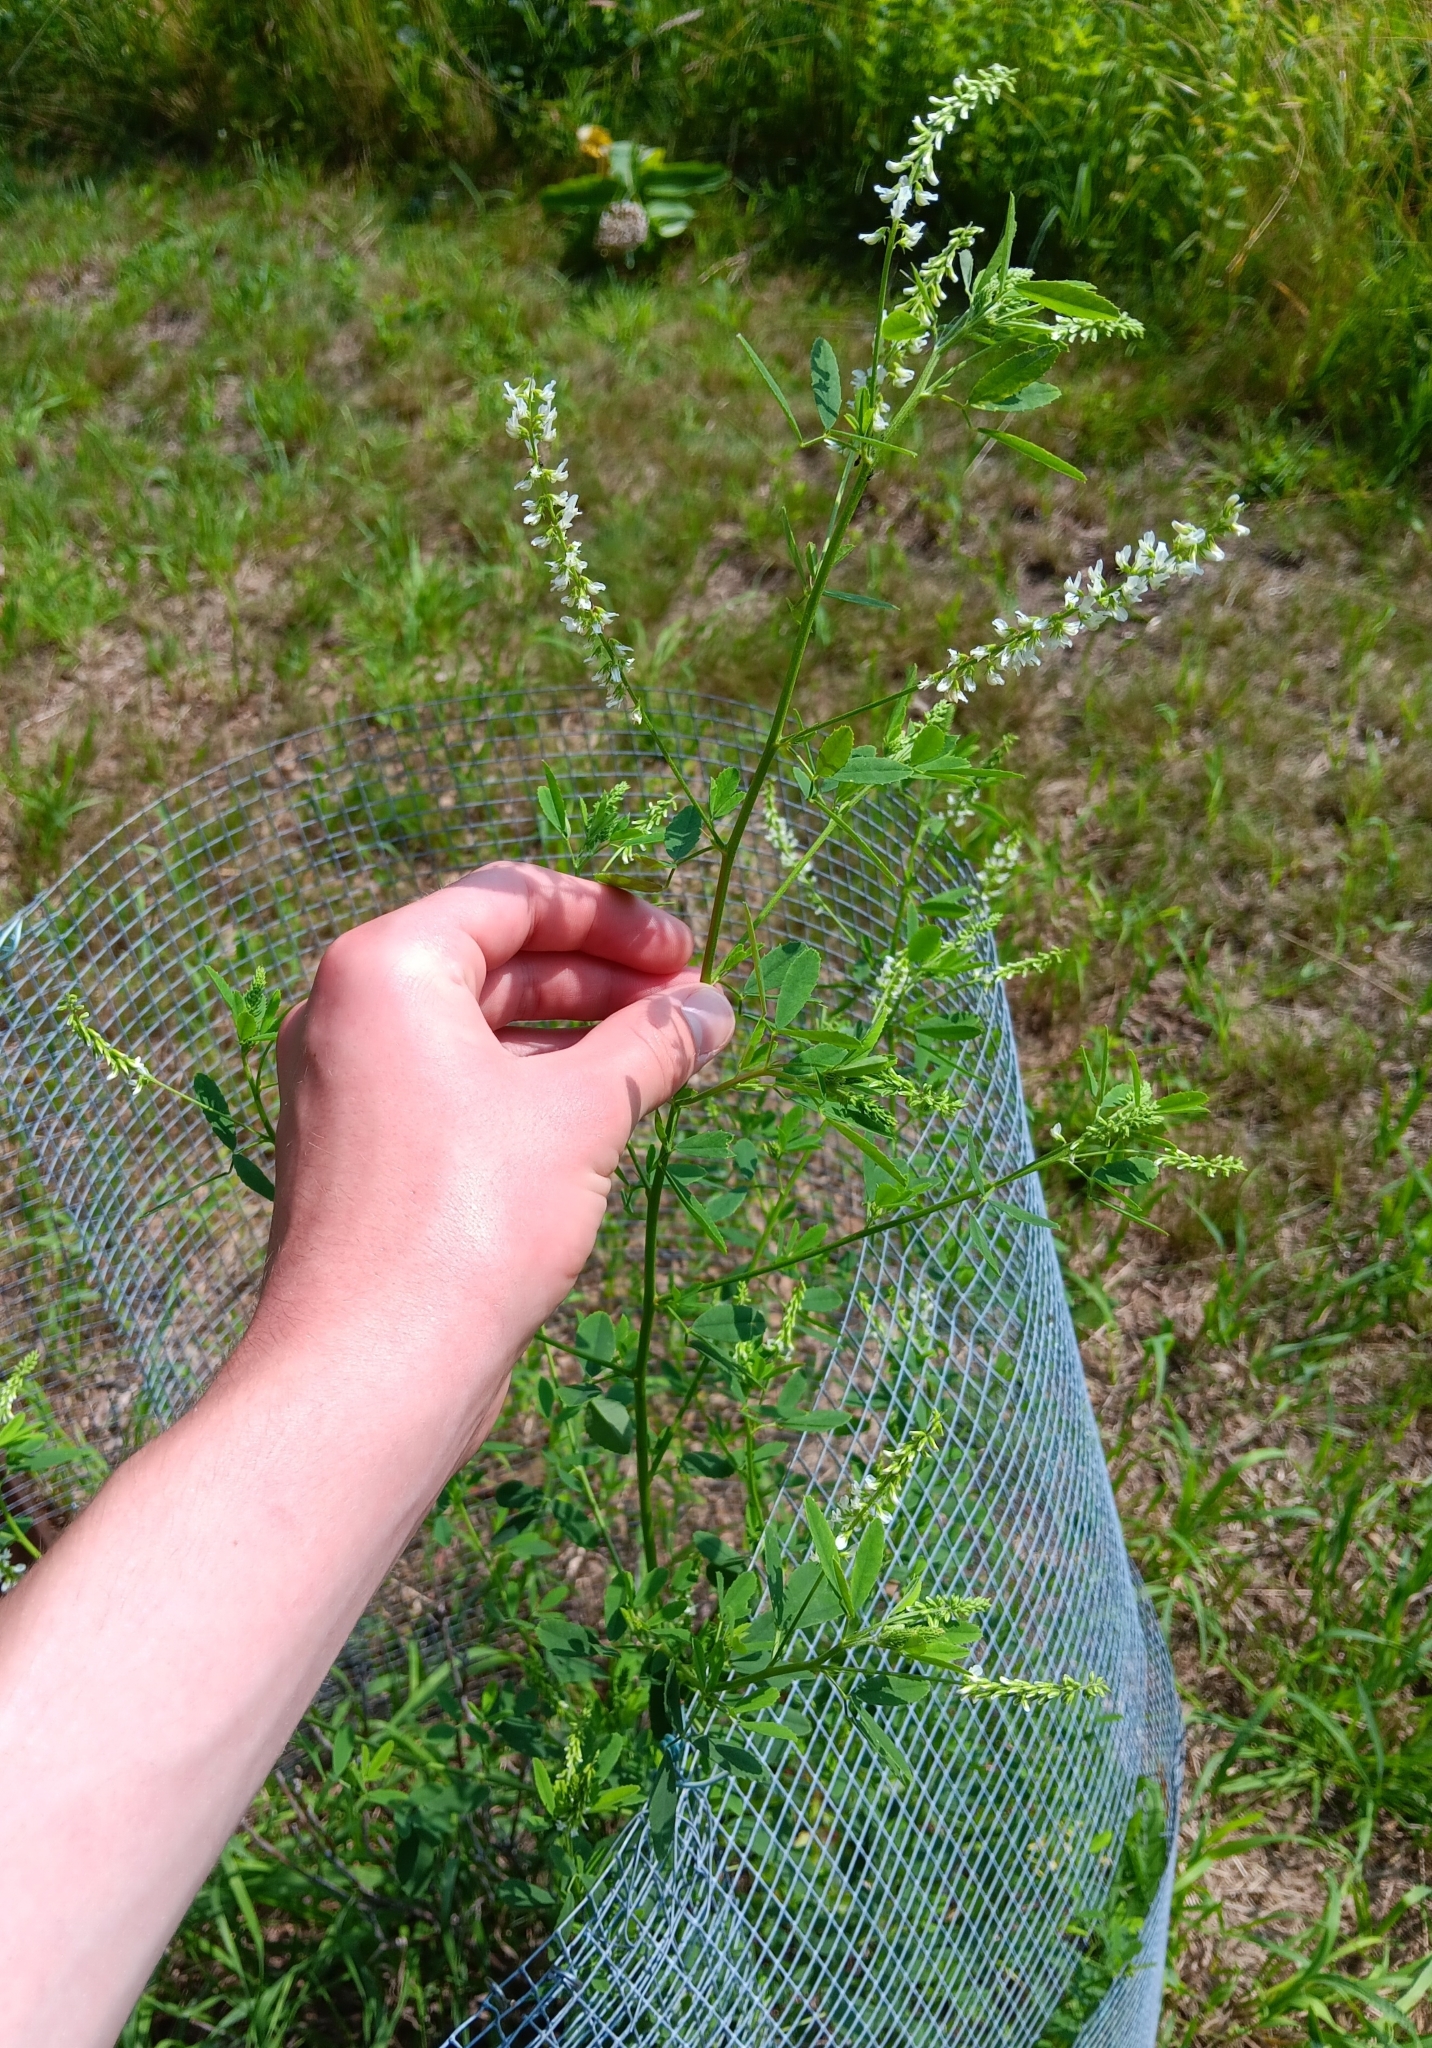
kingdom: Plantae
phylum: Tracheophyta
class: Magnoliopsida
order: Fabales
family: Fabaceae
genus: Melilotus
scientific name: Melilotus albus
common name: White melilot
